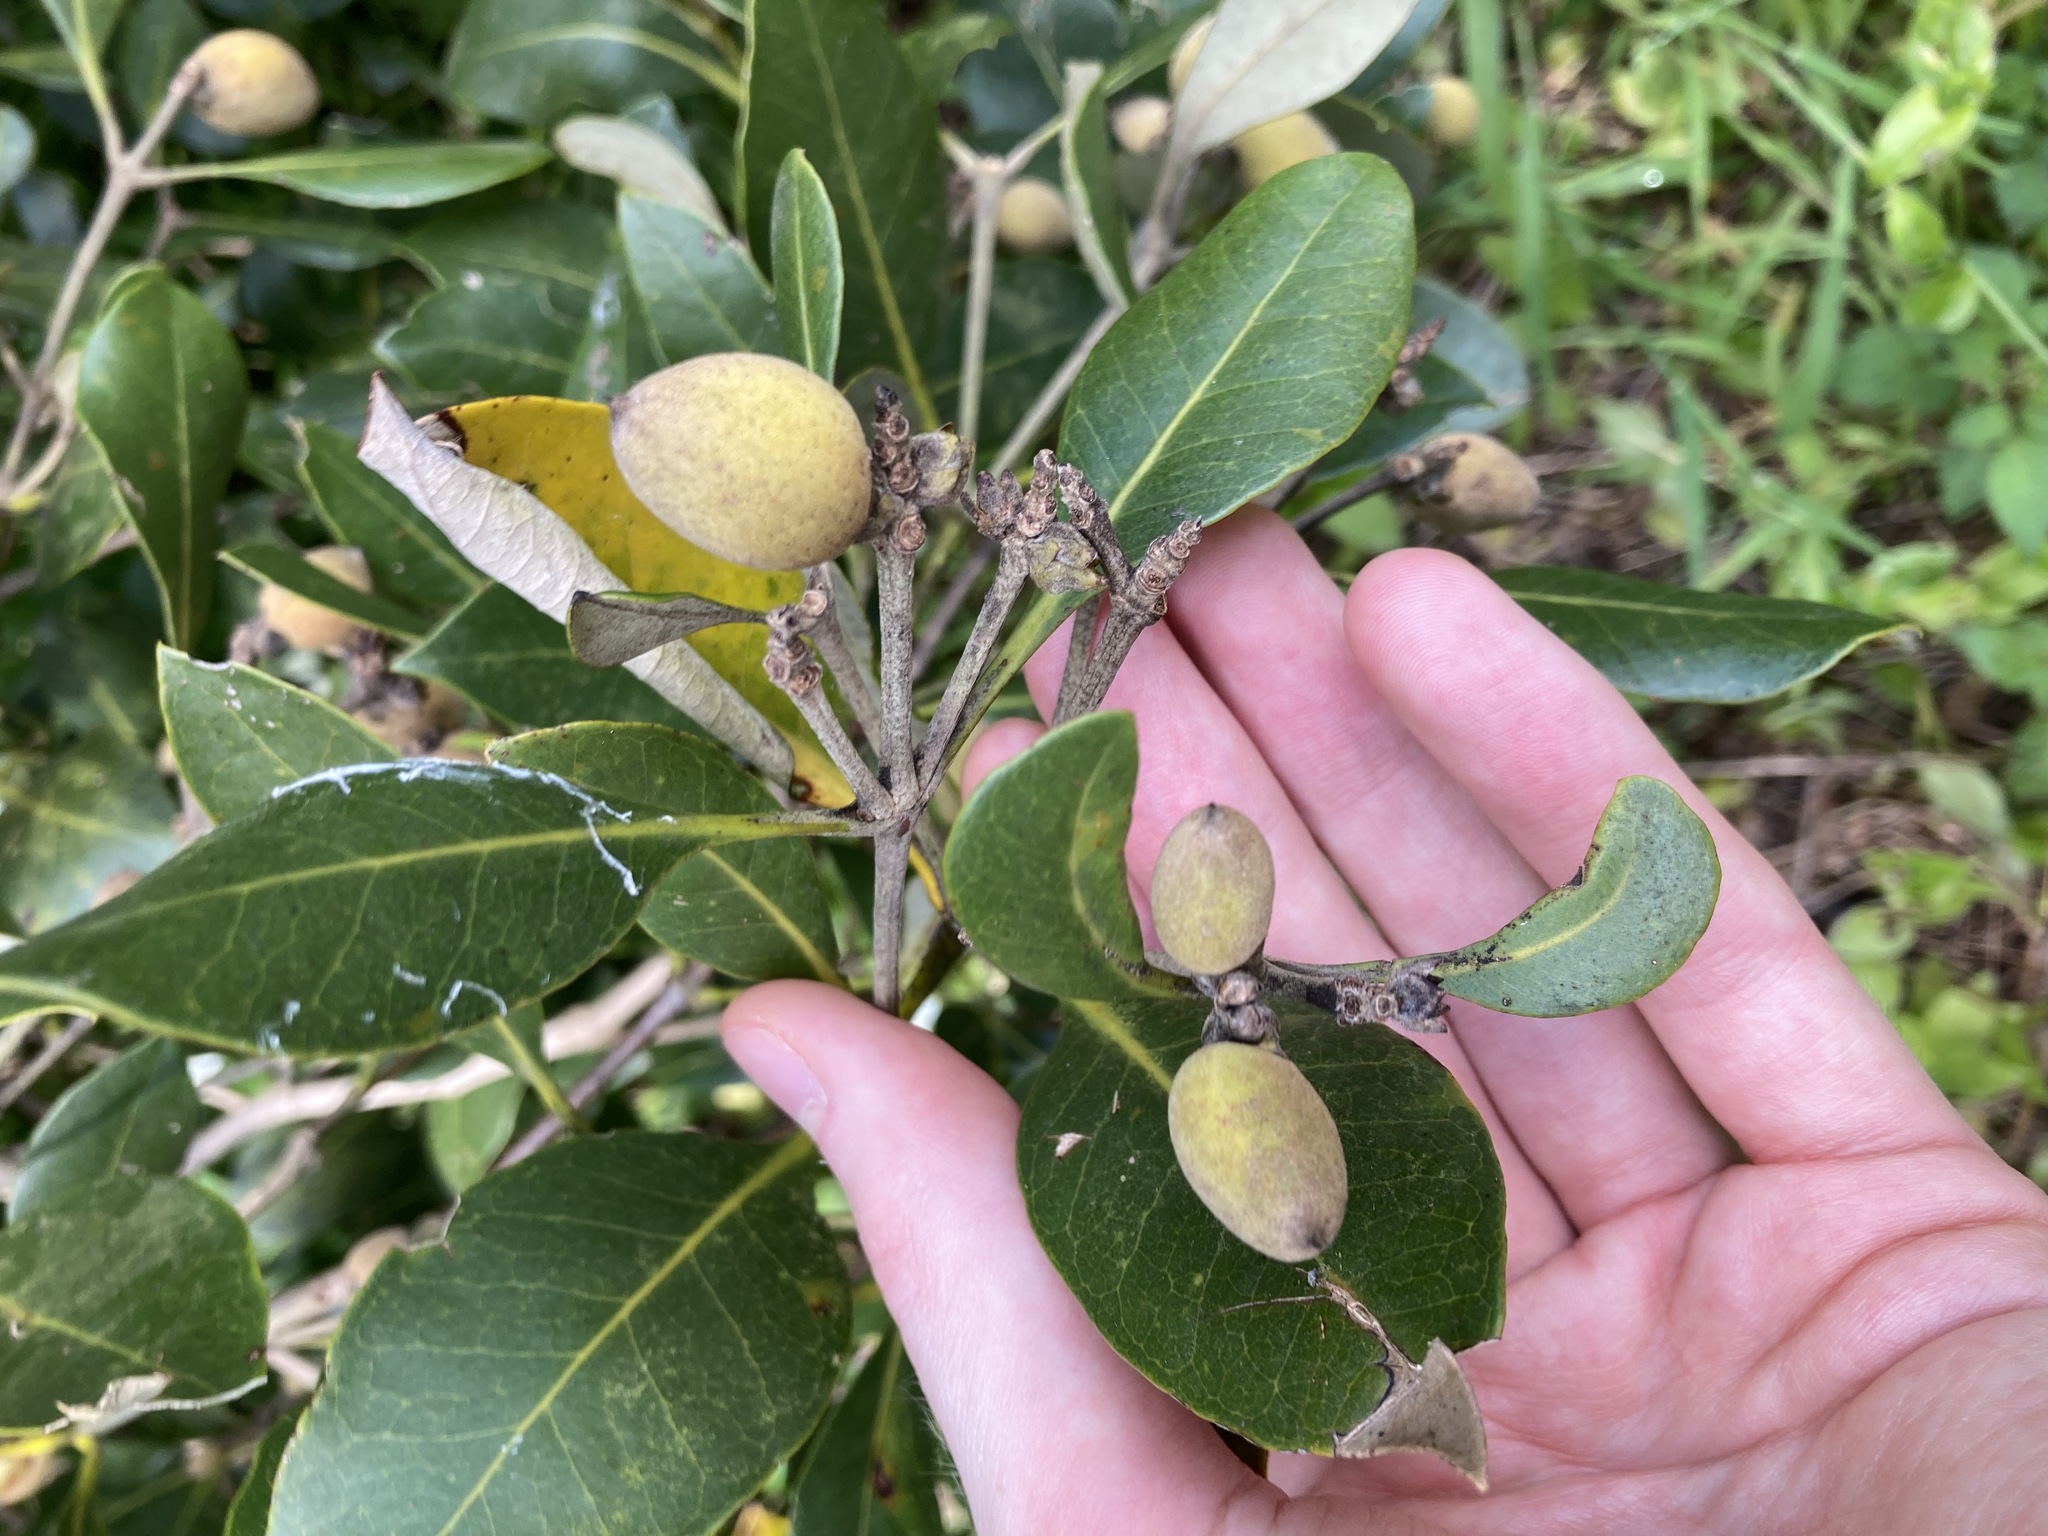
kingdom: Plantae
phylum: Tracheophyta
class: Magnoliopsida
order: Lamiales
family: Acanthaceae
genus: Avicennia
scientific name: Avicennia marina
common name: Gray mangrove
